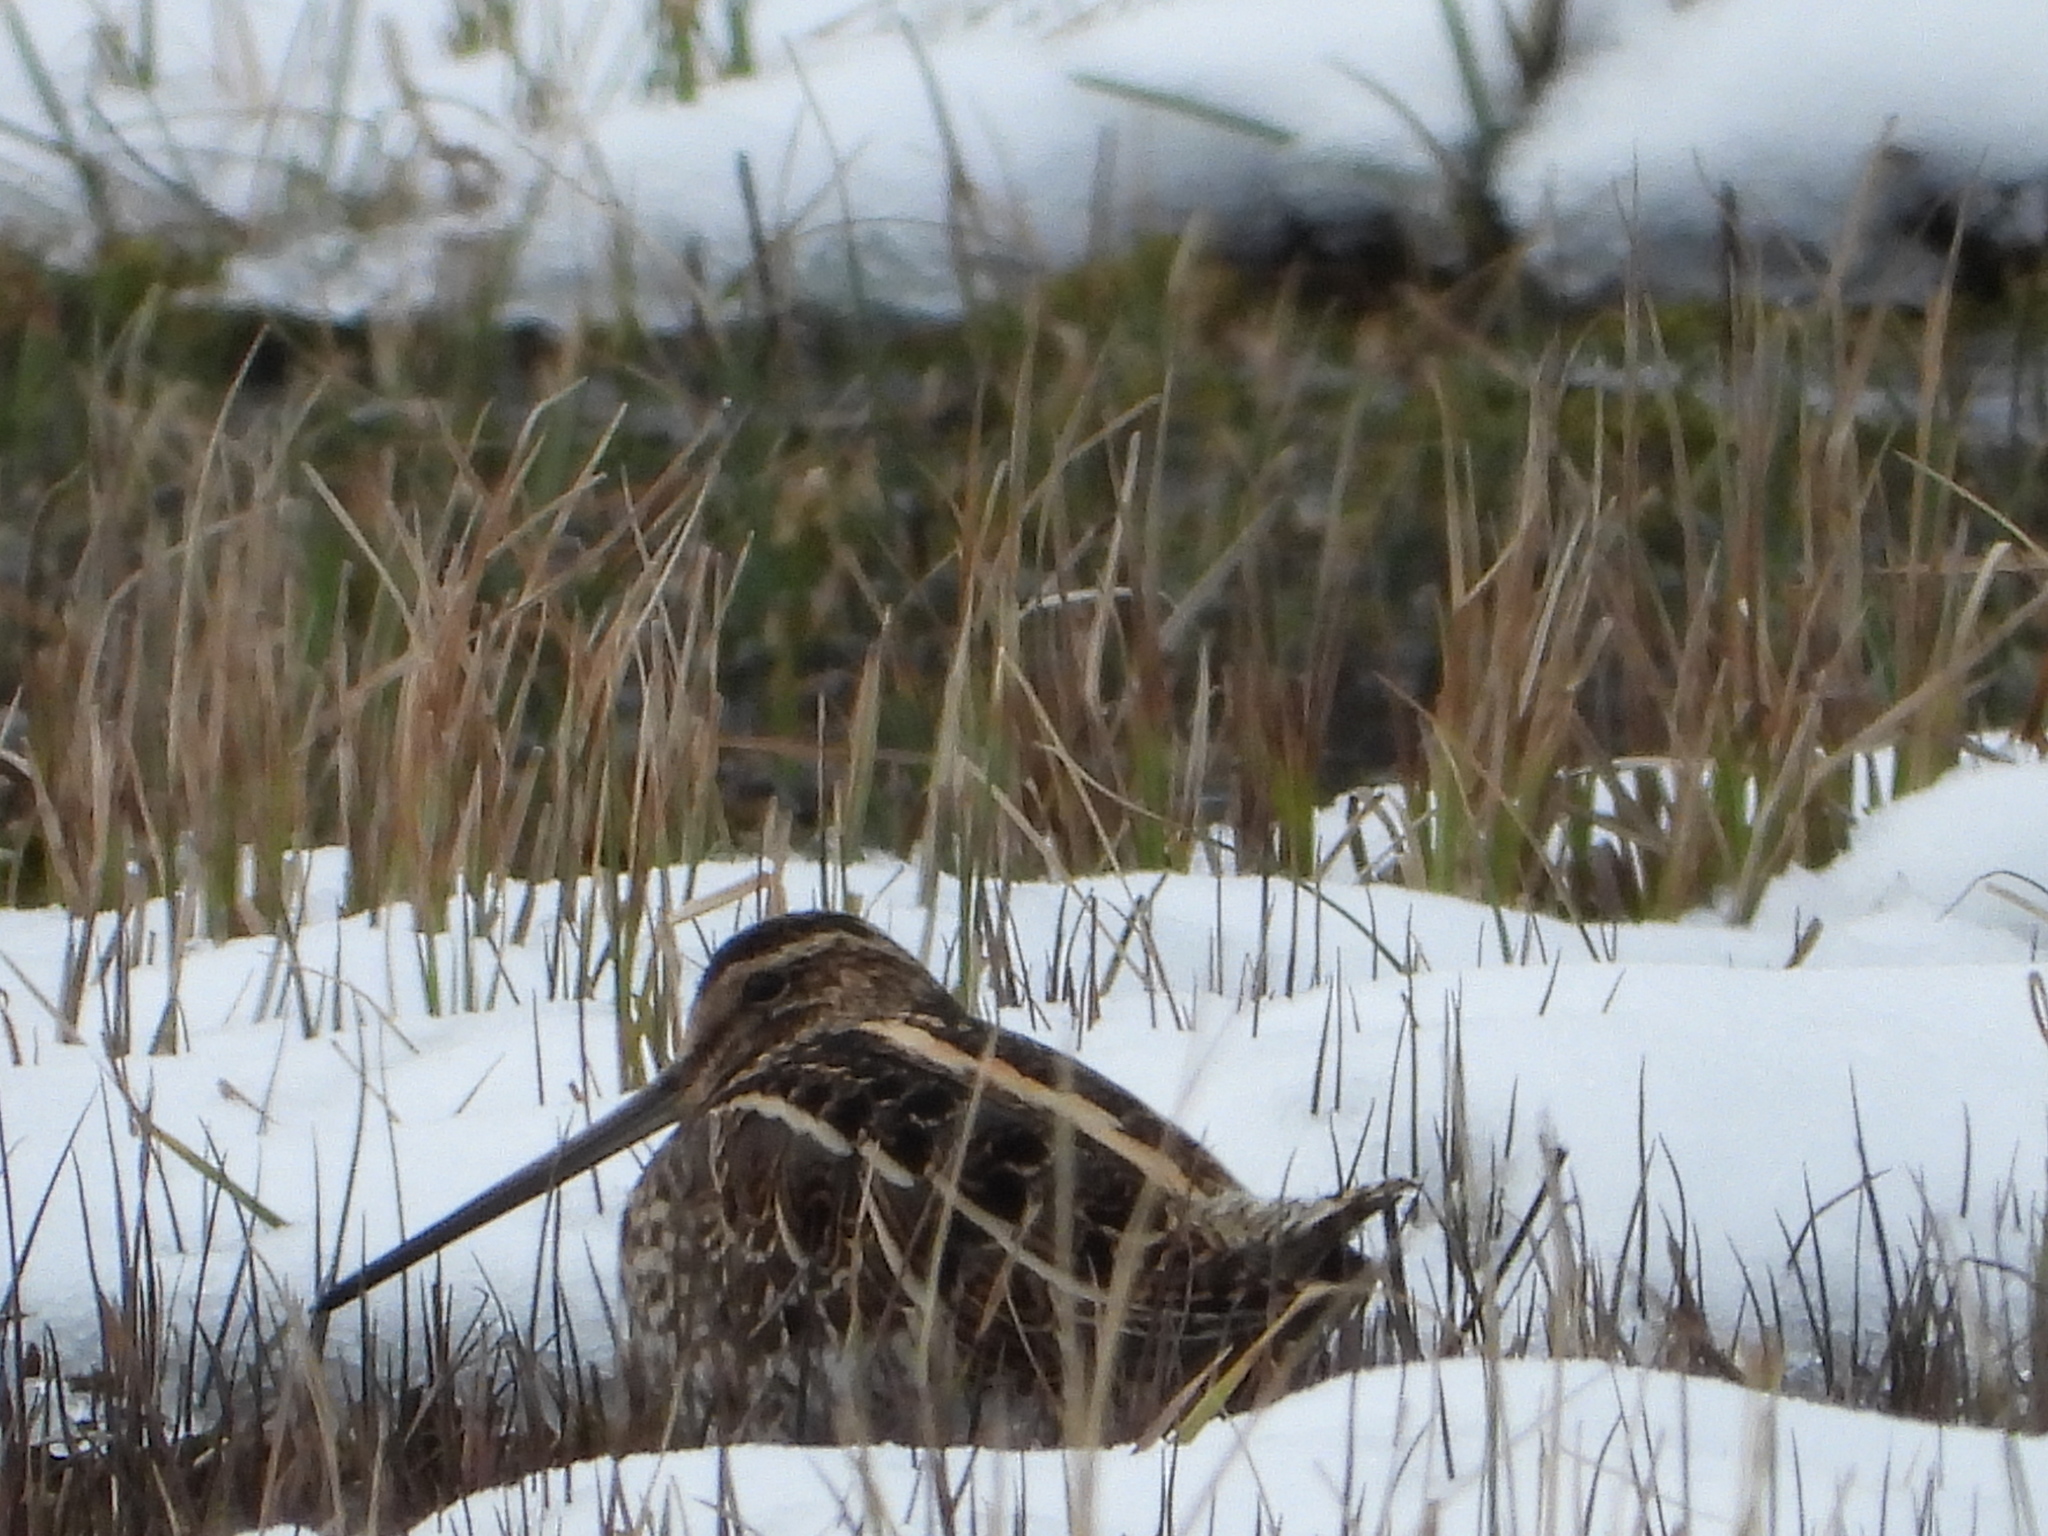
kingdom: Animalia
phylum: Chordata
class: Aves
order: Charadriiformes
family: Scolopacidae
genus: Gallinago
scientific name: Gallinago gallinago
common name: Common snipe
